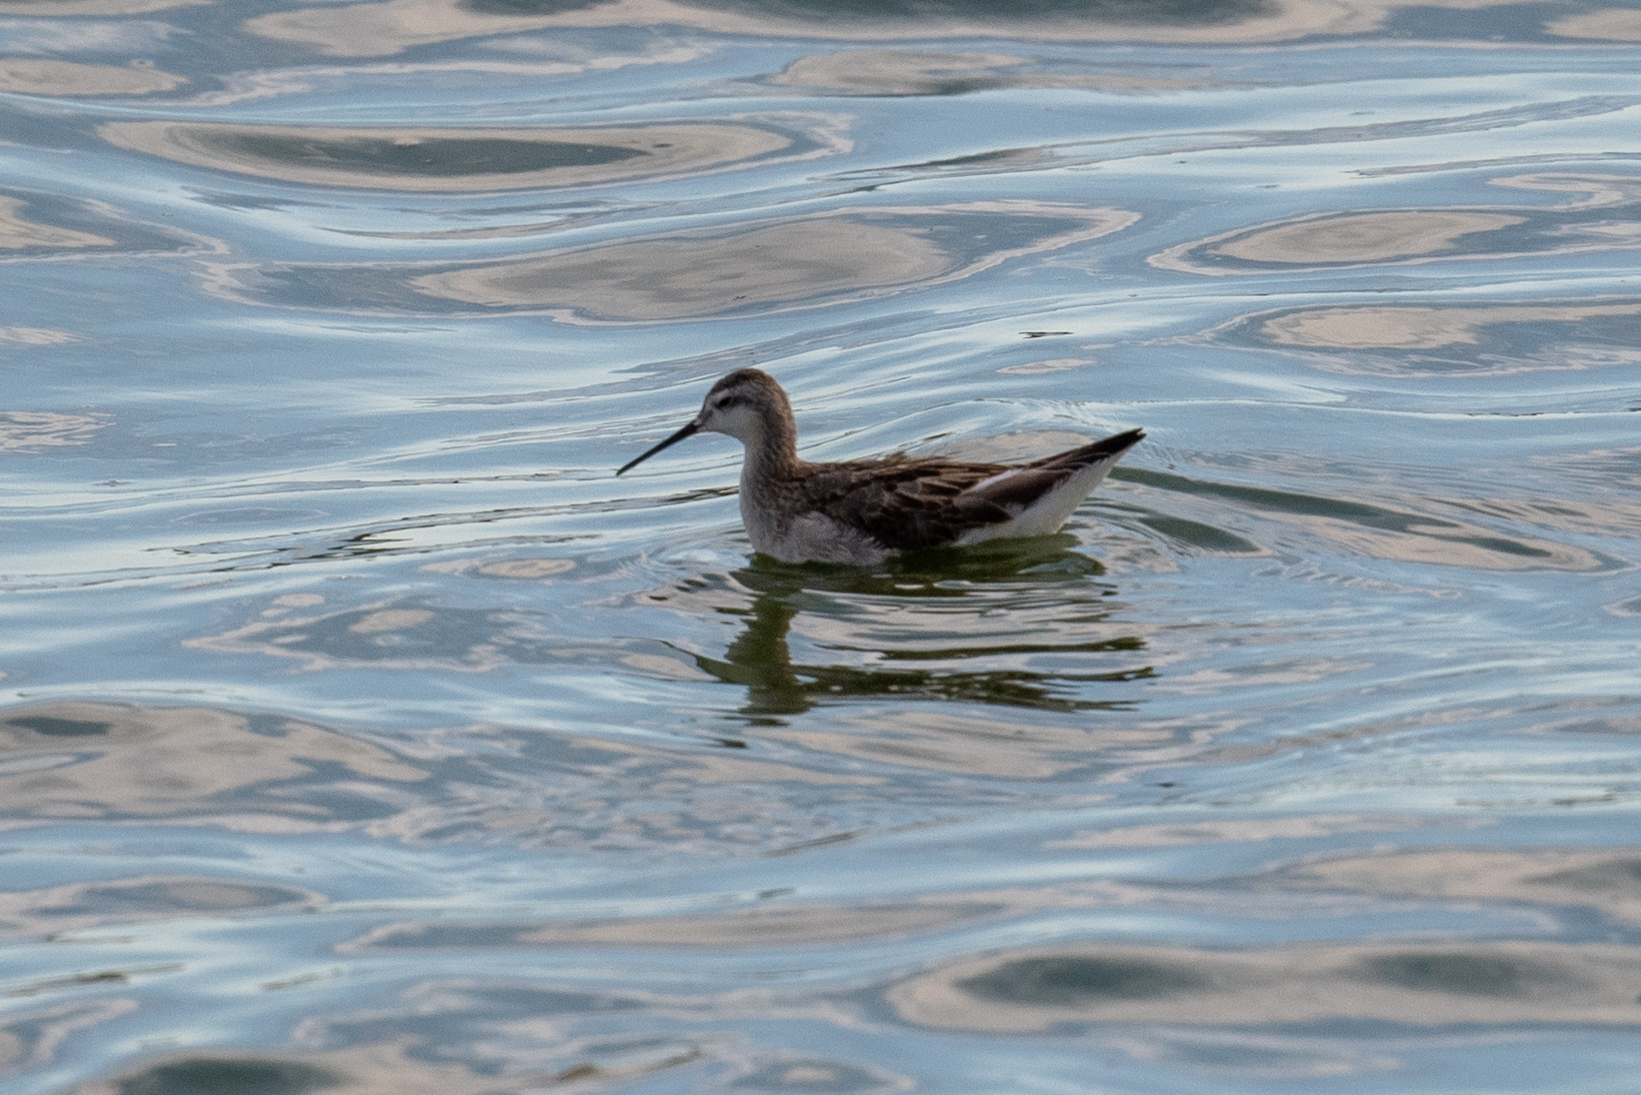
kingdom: Animalia
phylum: Chordata
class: Aves
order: Charadriiformes
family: Scolopacidae
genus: Phalaropus
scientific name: Phalaropus tricolor
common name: Wilson's phalarope
